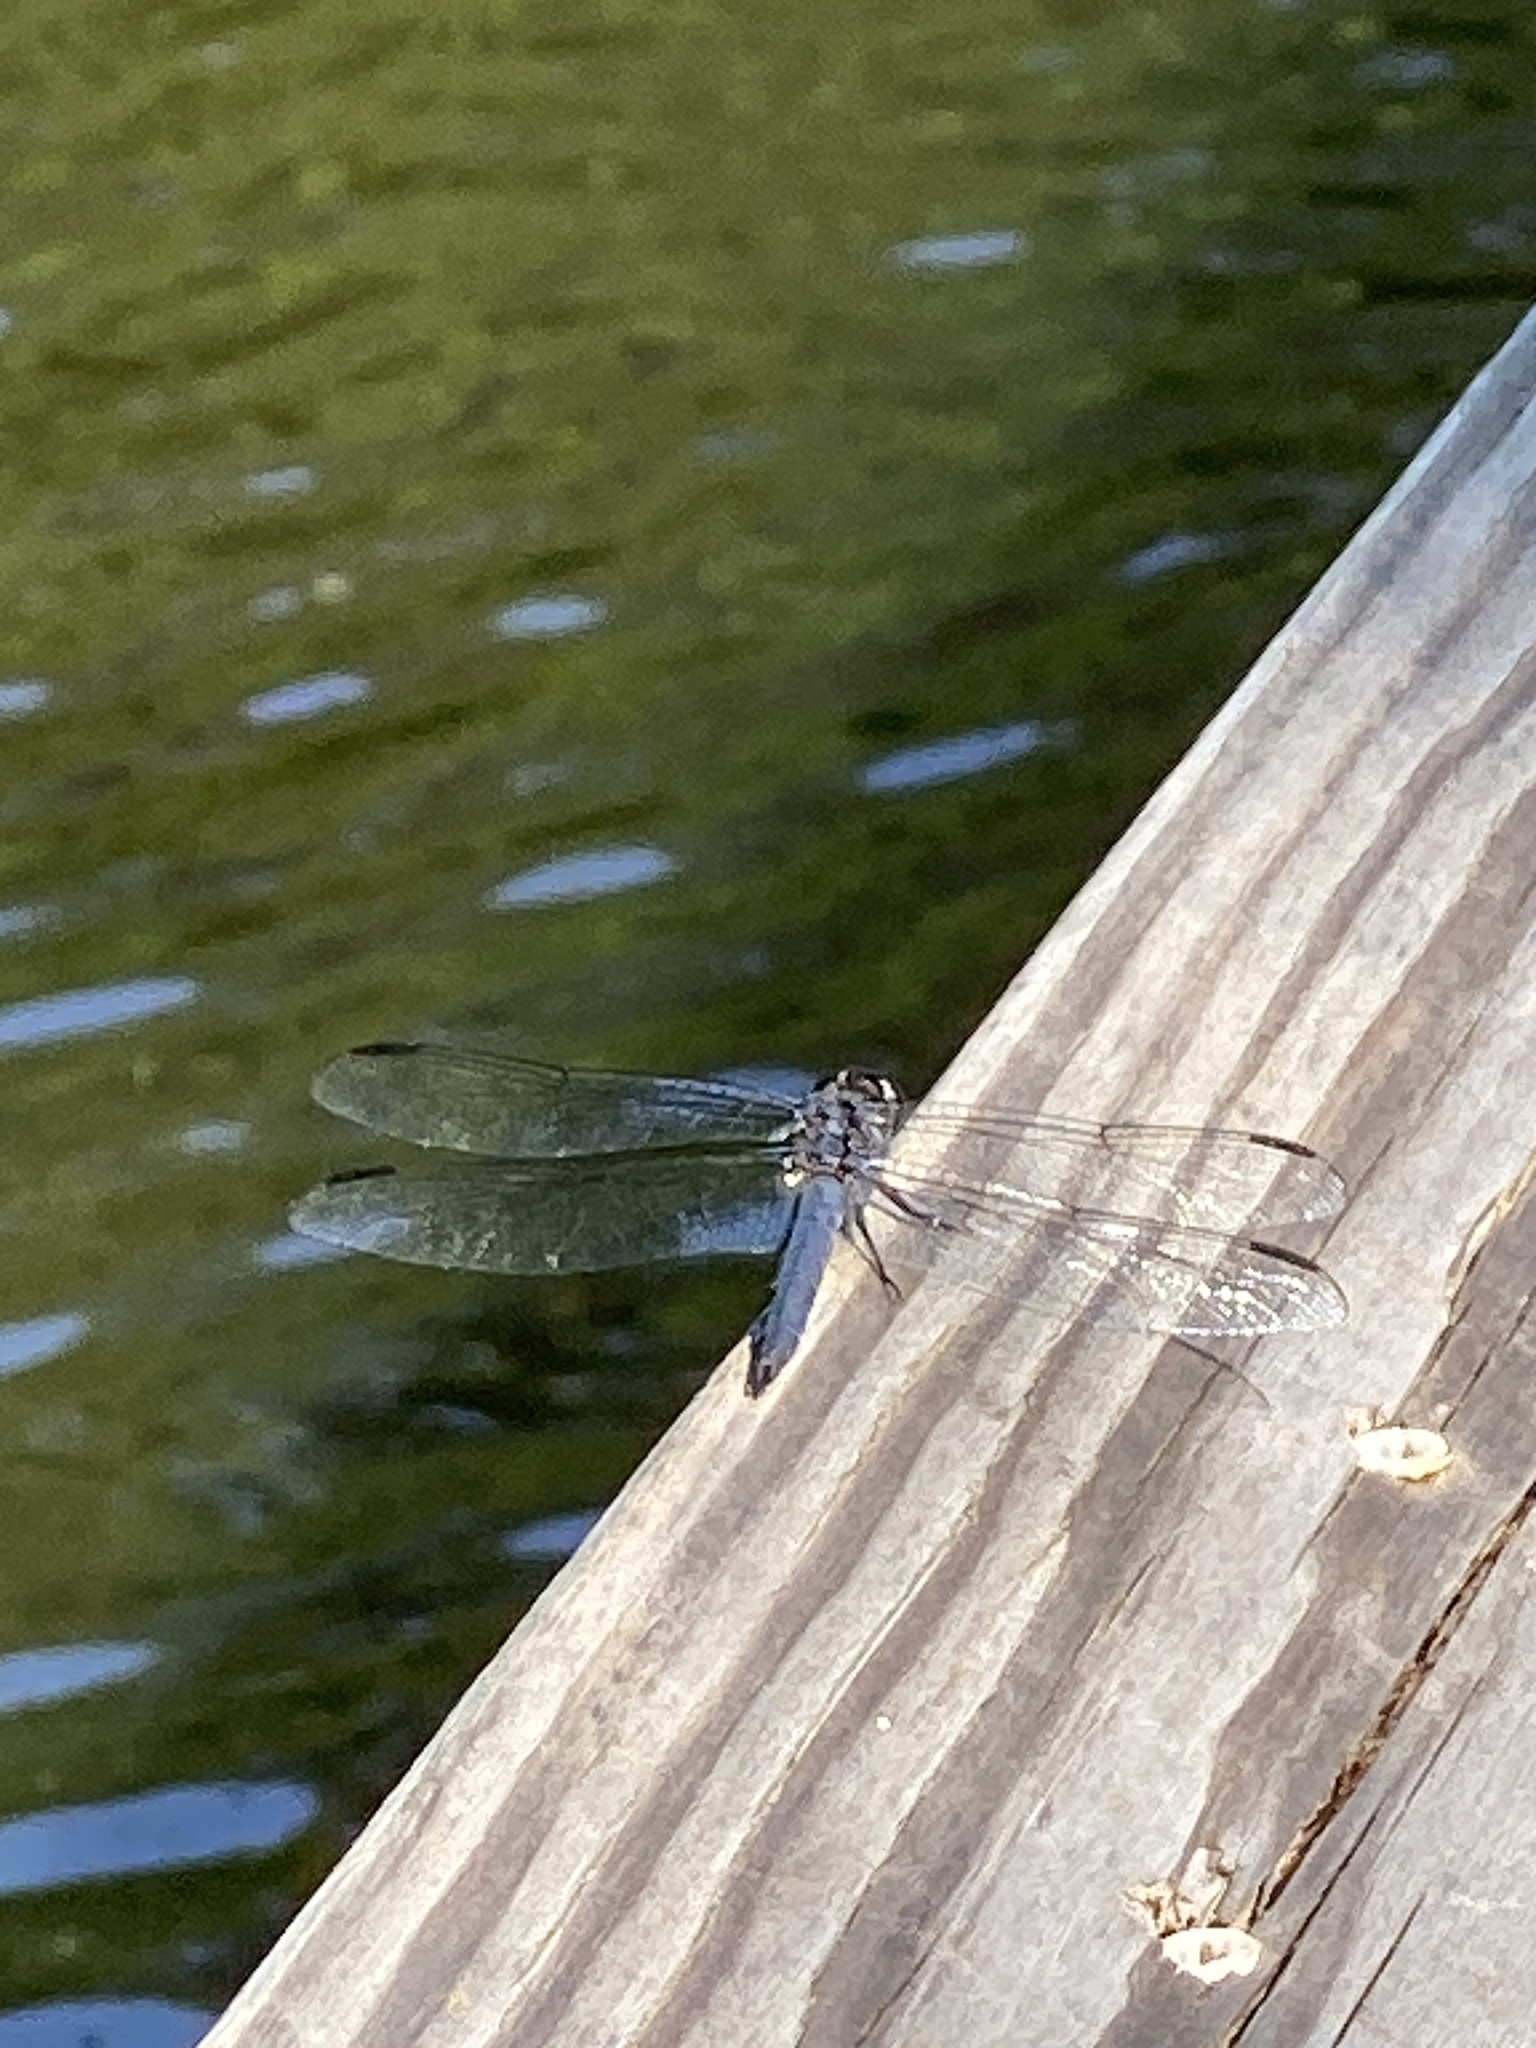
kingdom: Animalia
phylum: Arthropoda
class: Insecta
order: Odonata
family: Libellulidae
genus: Libellula
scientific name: Libellula incesta
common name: Slaty skimmer
